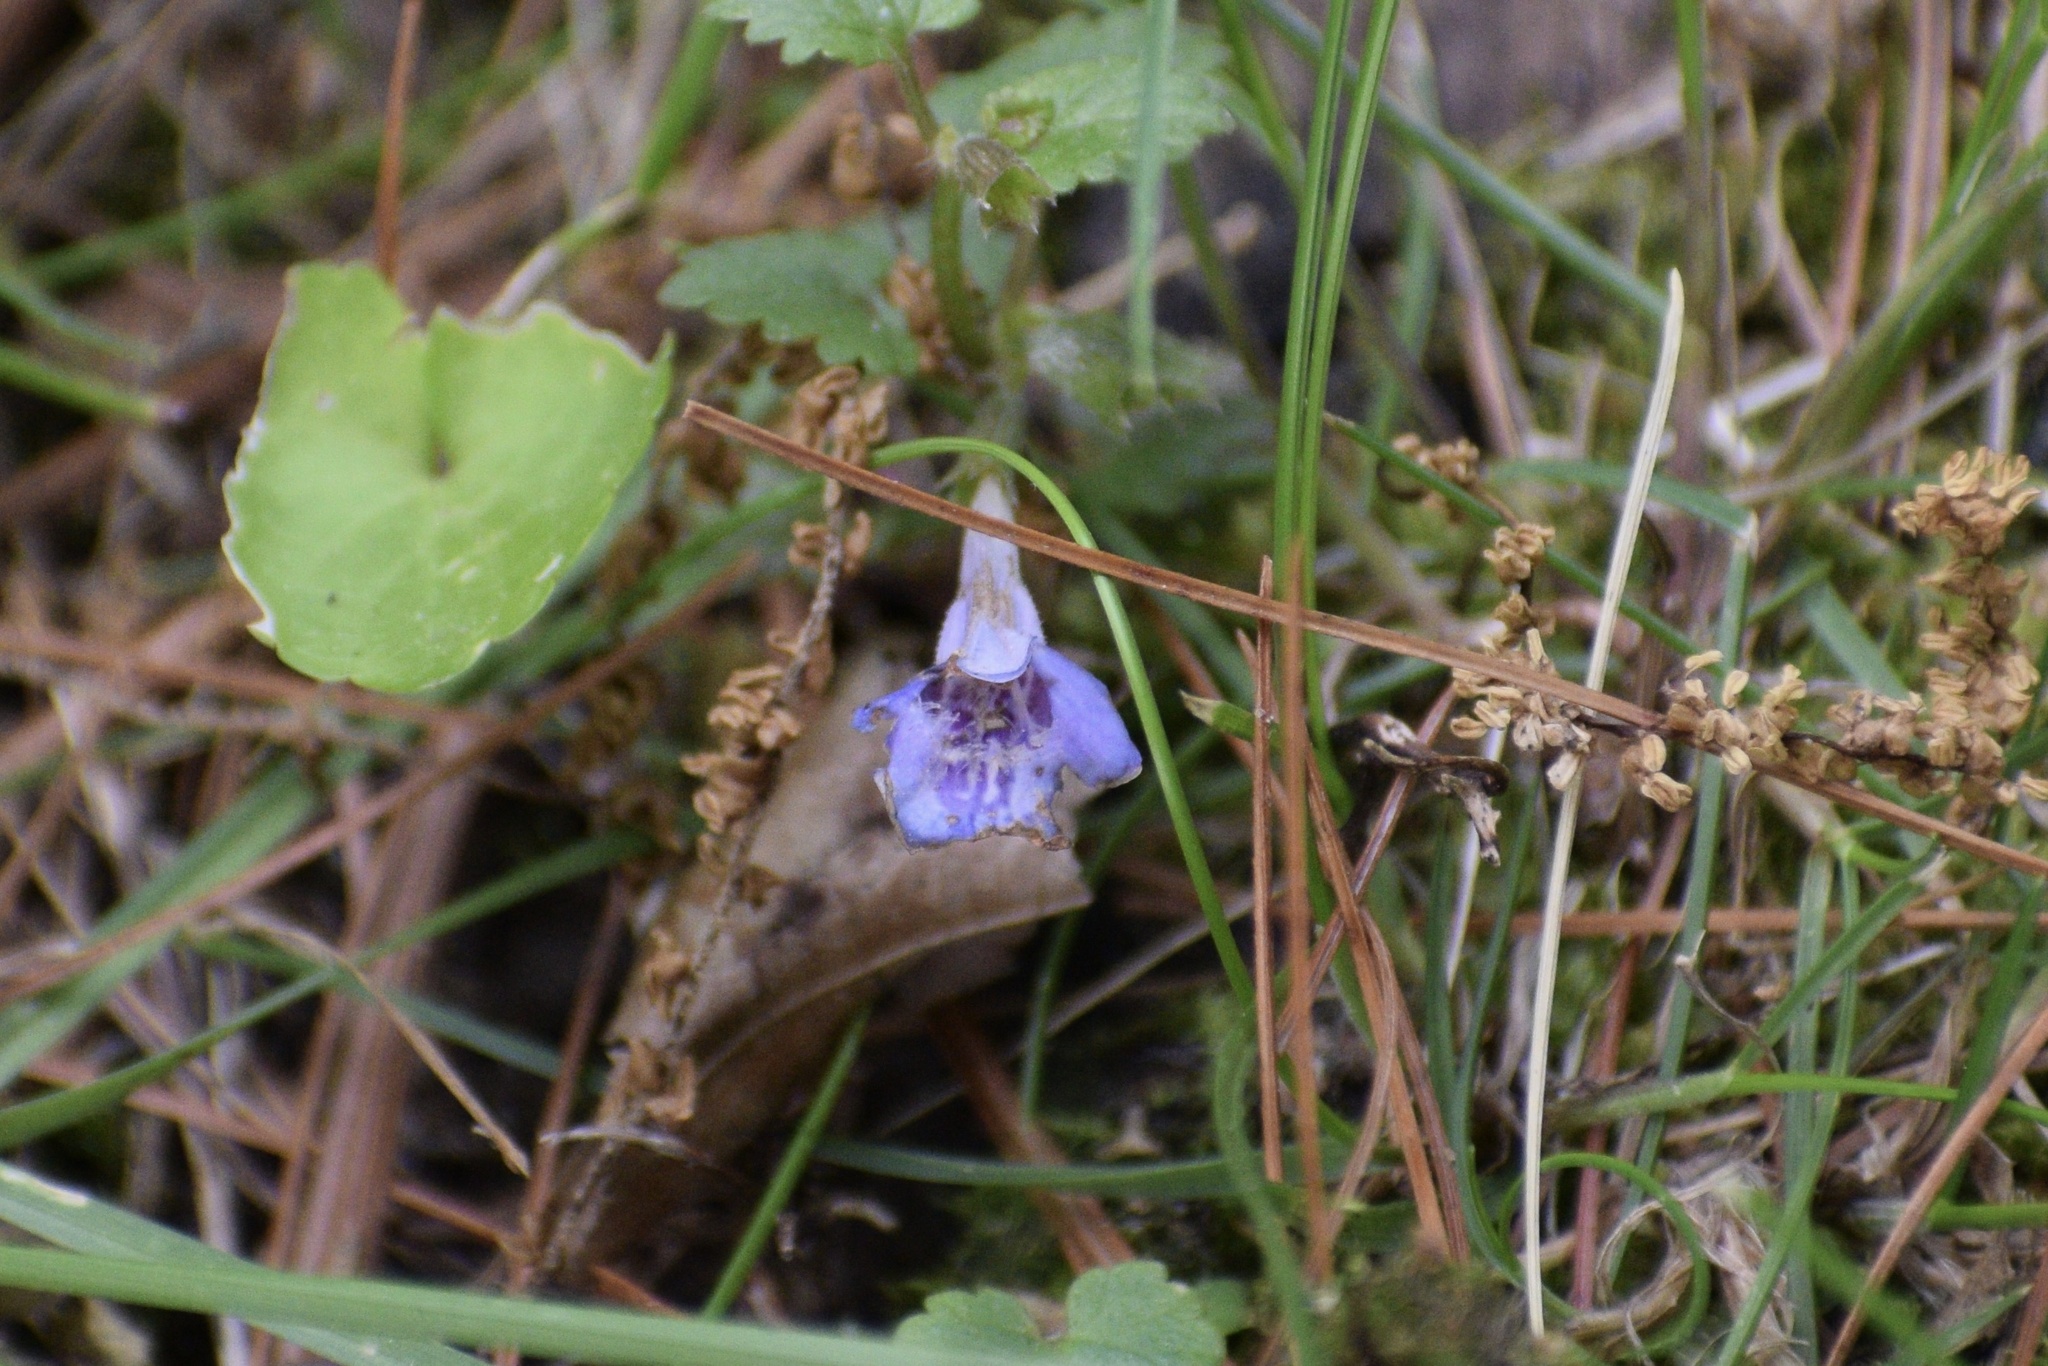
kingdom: Plantae
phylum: Tracheophyta
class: Magnoliopsida
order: Lamiales
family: Lamiaceae
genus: Glechoma
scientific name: Glechoma hederacea
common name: Ground ivy
